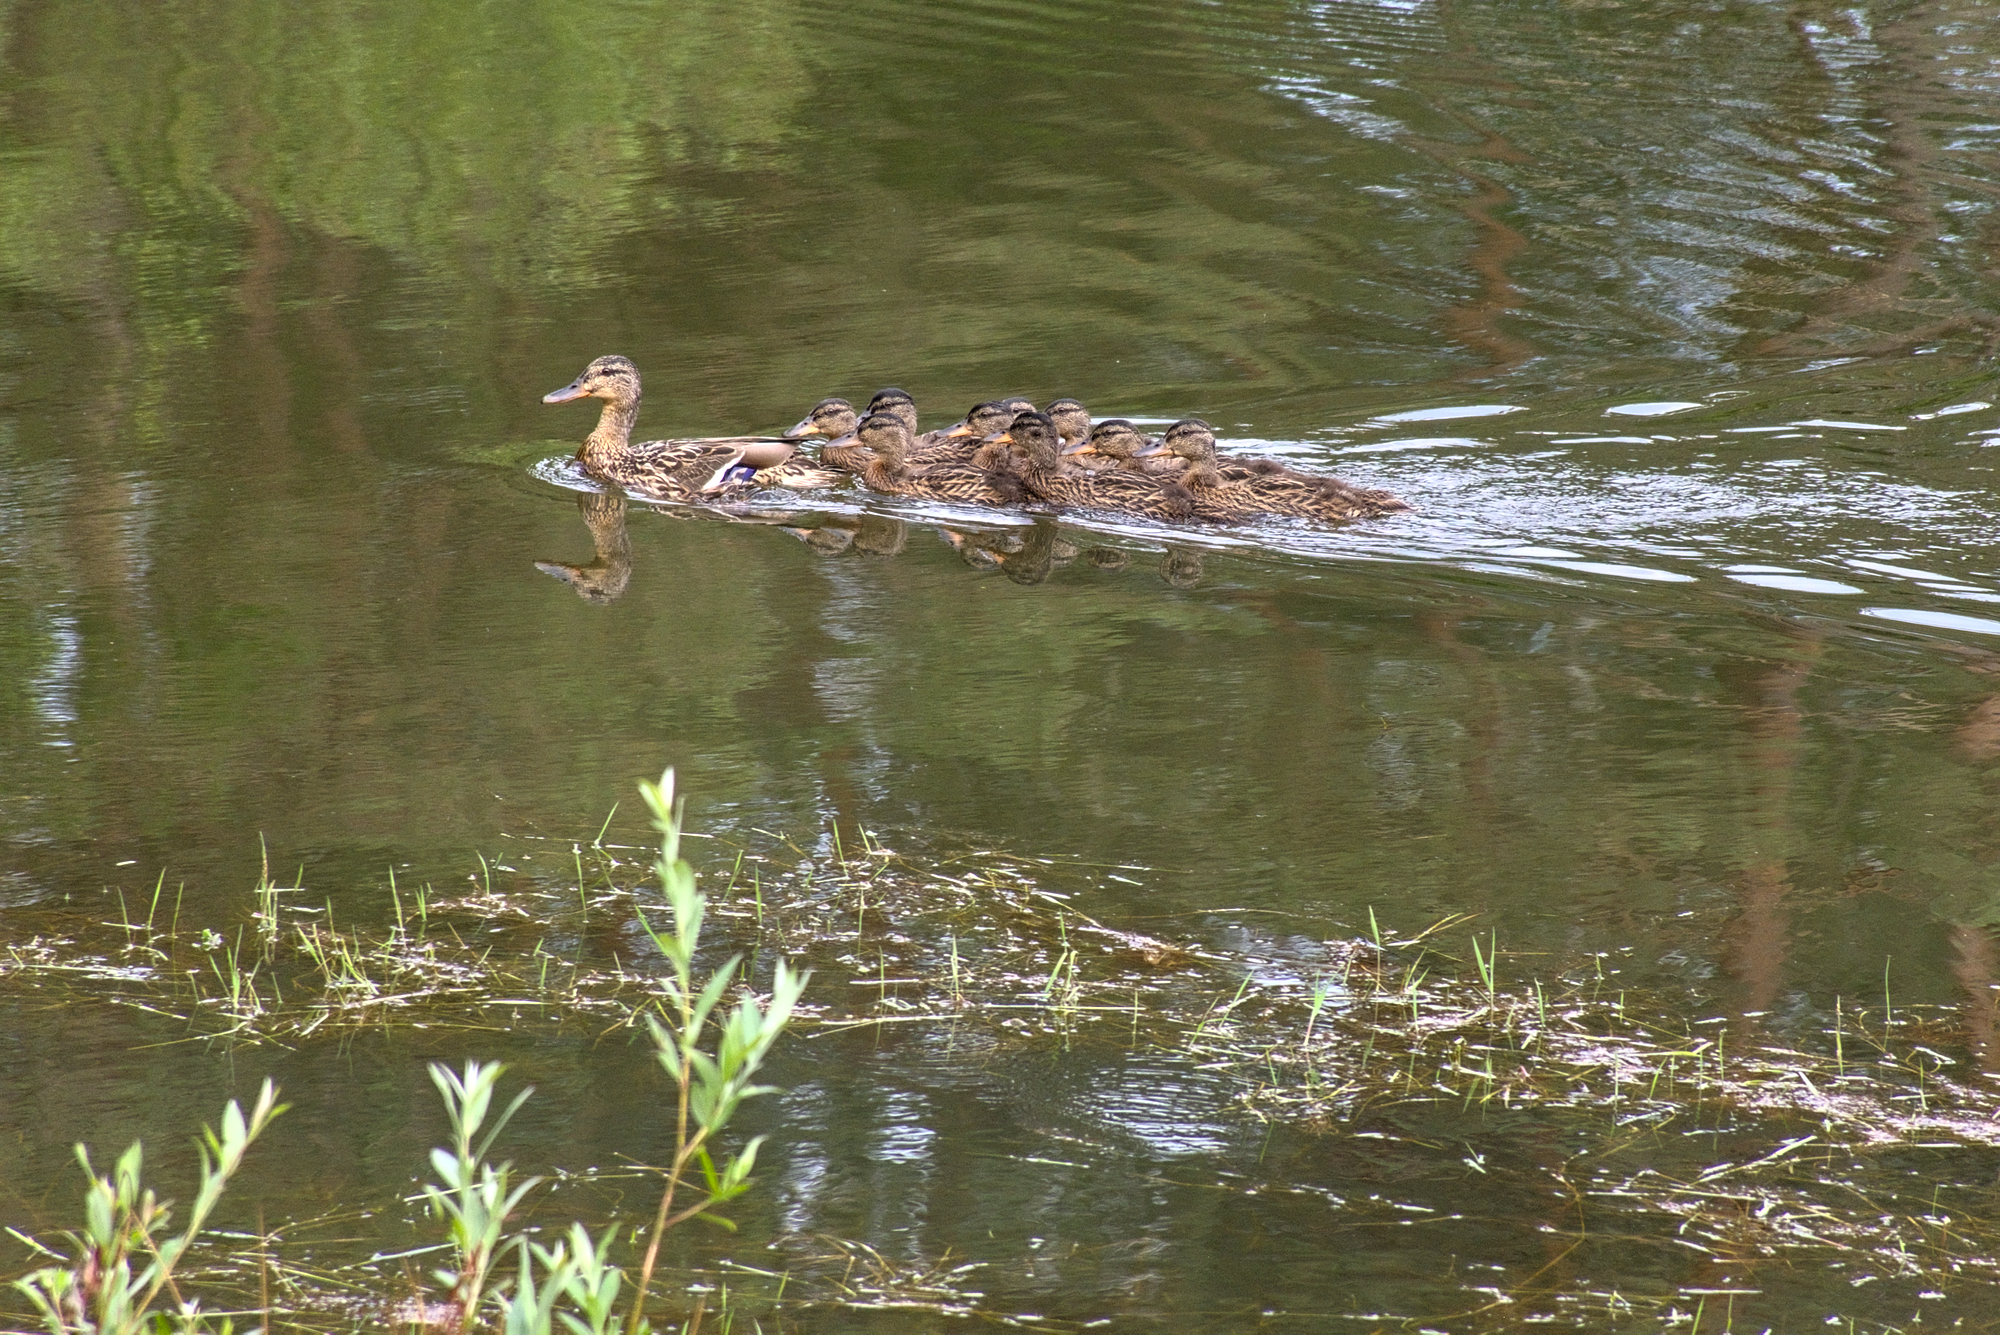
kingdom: Animalia
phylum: Chordata
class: Aves
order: Anseriformes
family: Anatidae
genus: Anas
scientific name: Anas platyrhynchos
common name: Mallard
